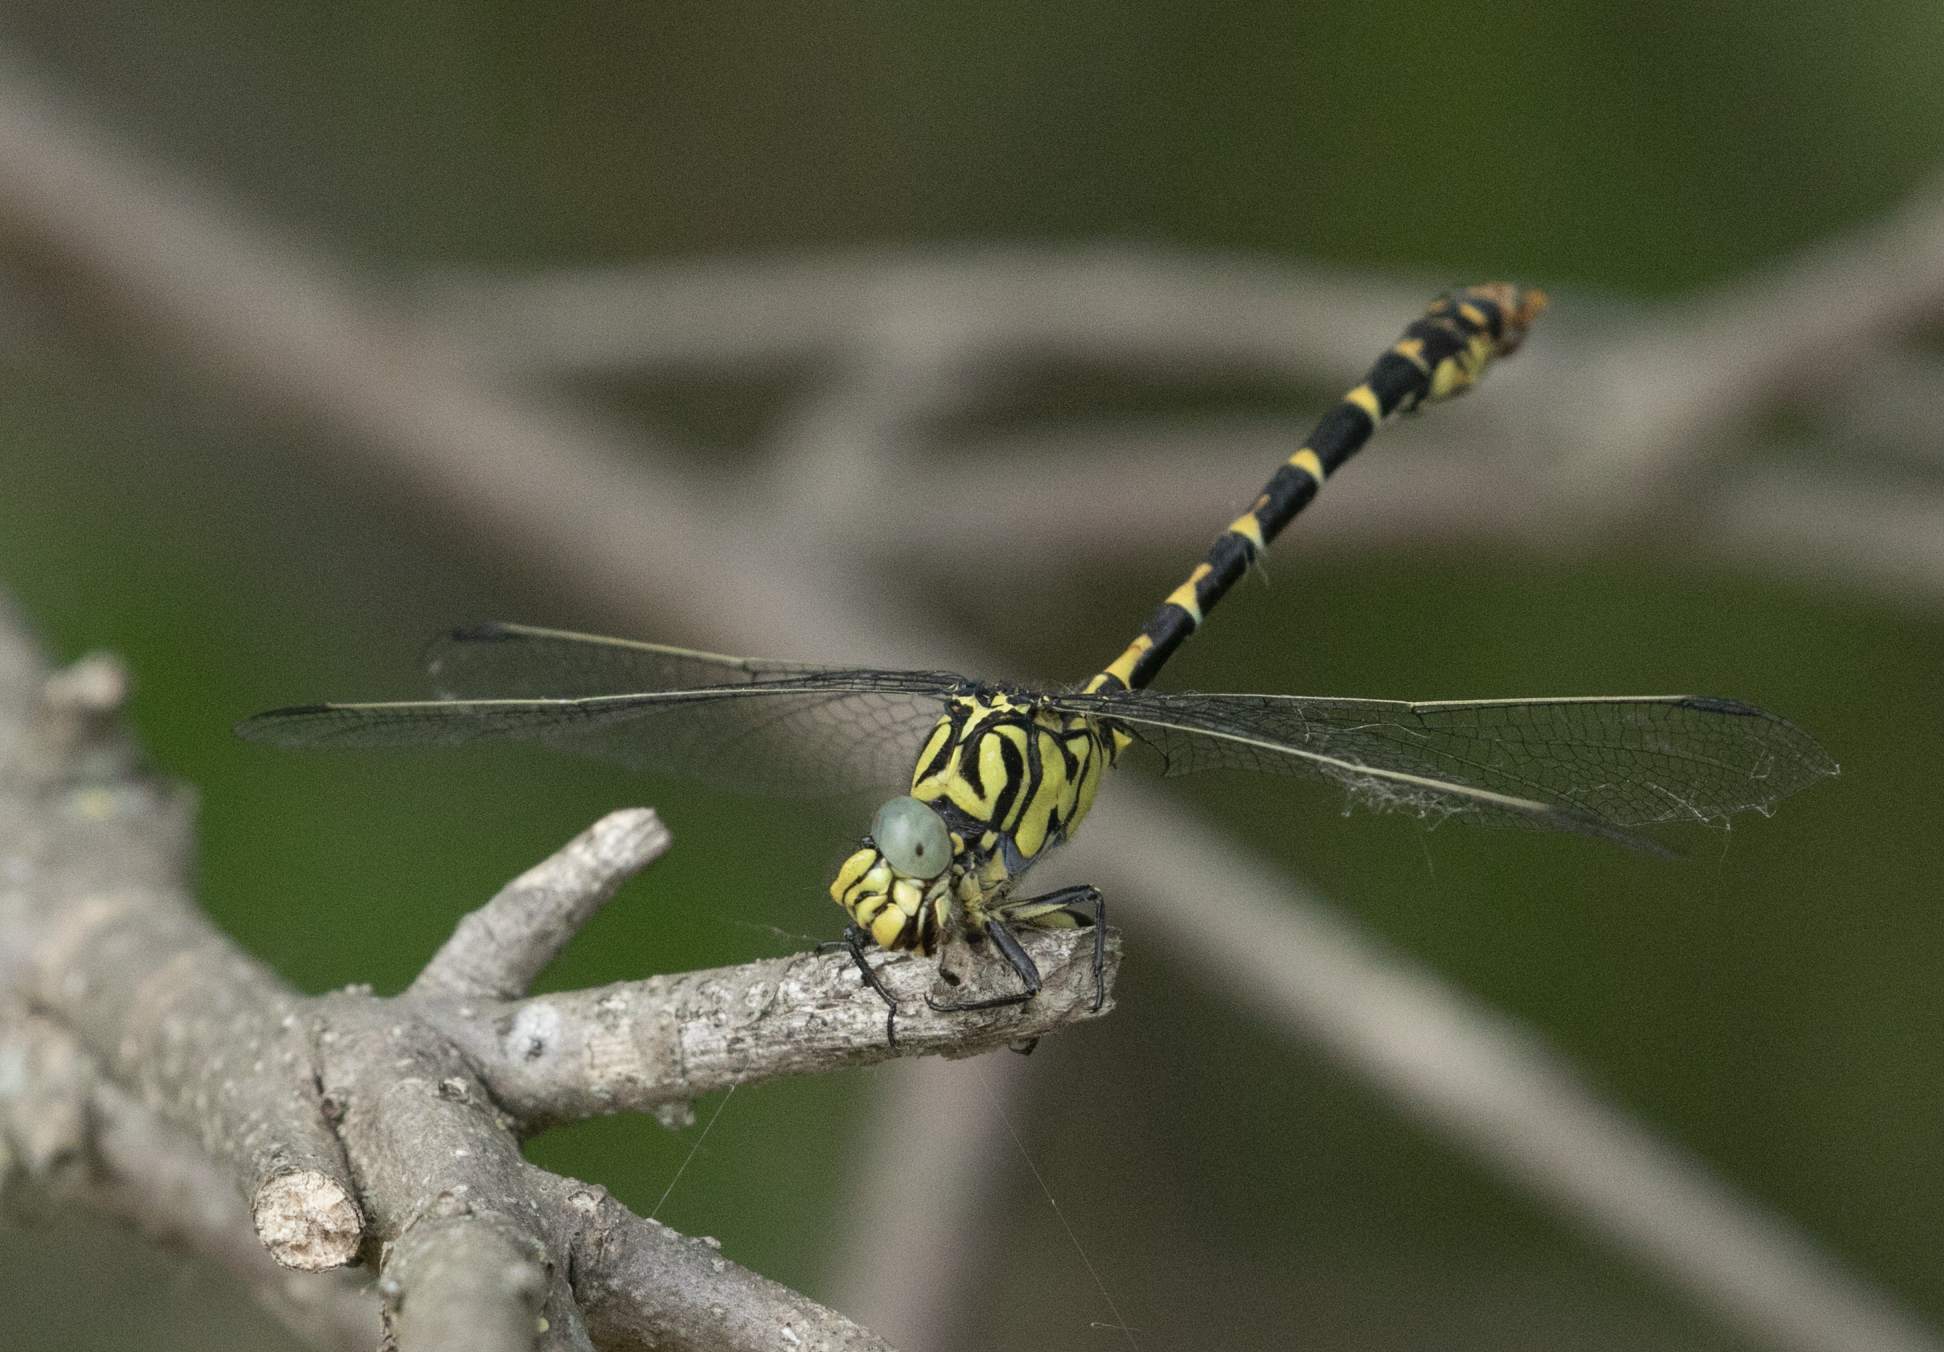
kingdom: Animalia
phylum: Arthropoda
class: Insecta
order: Odonata
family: Gomphidae
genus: Onychogomphus
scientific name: Onychogomphus forcipatus
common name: Small pincertail
